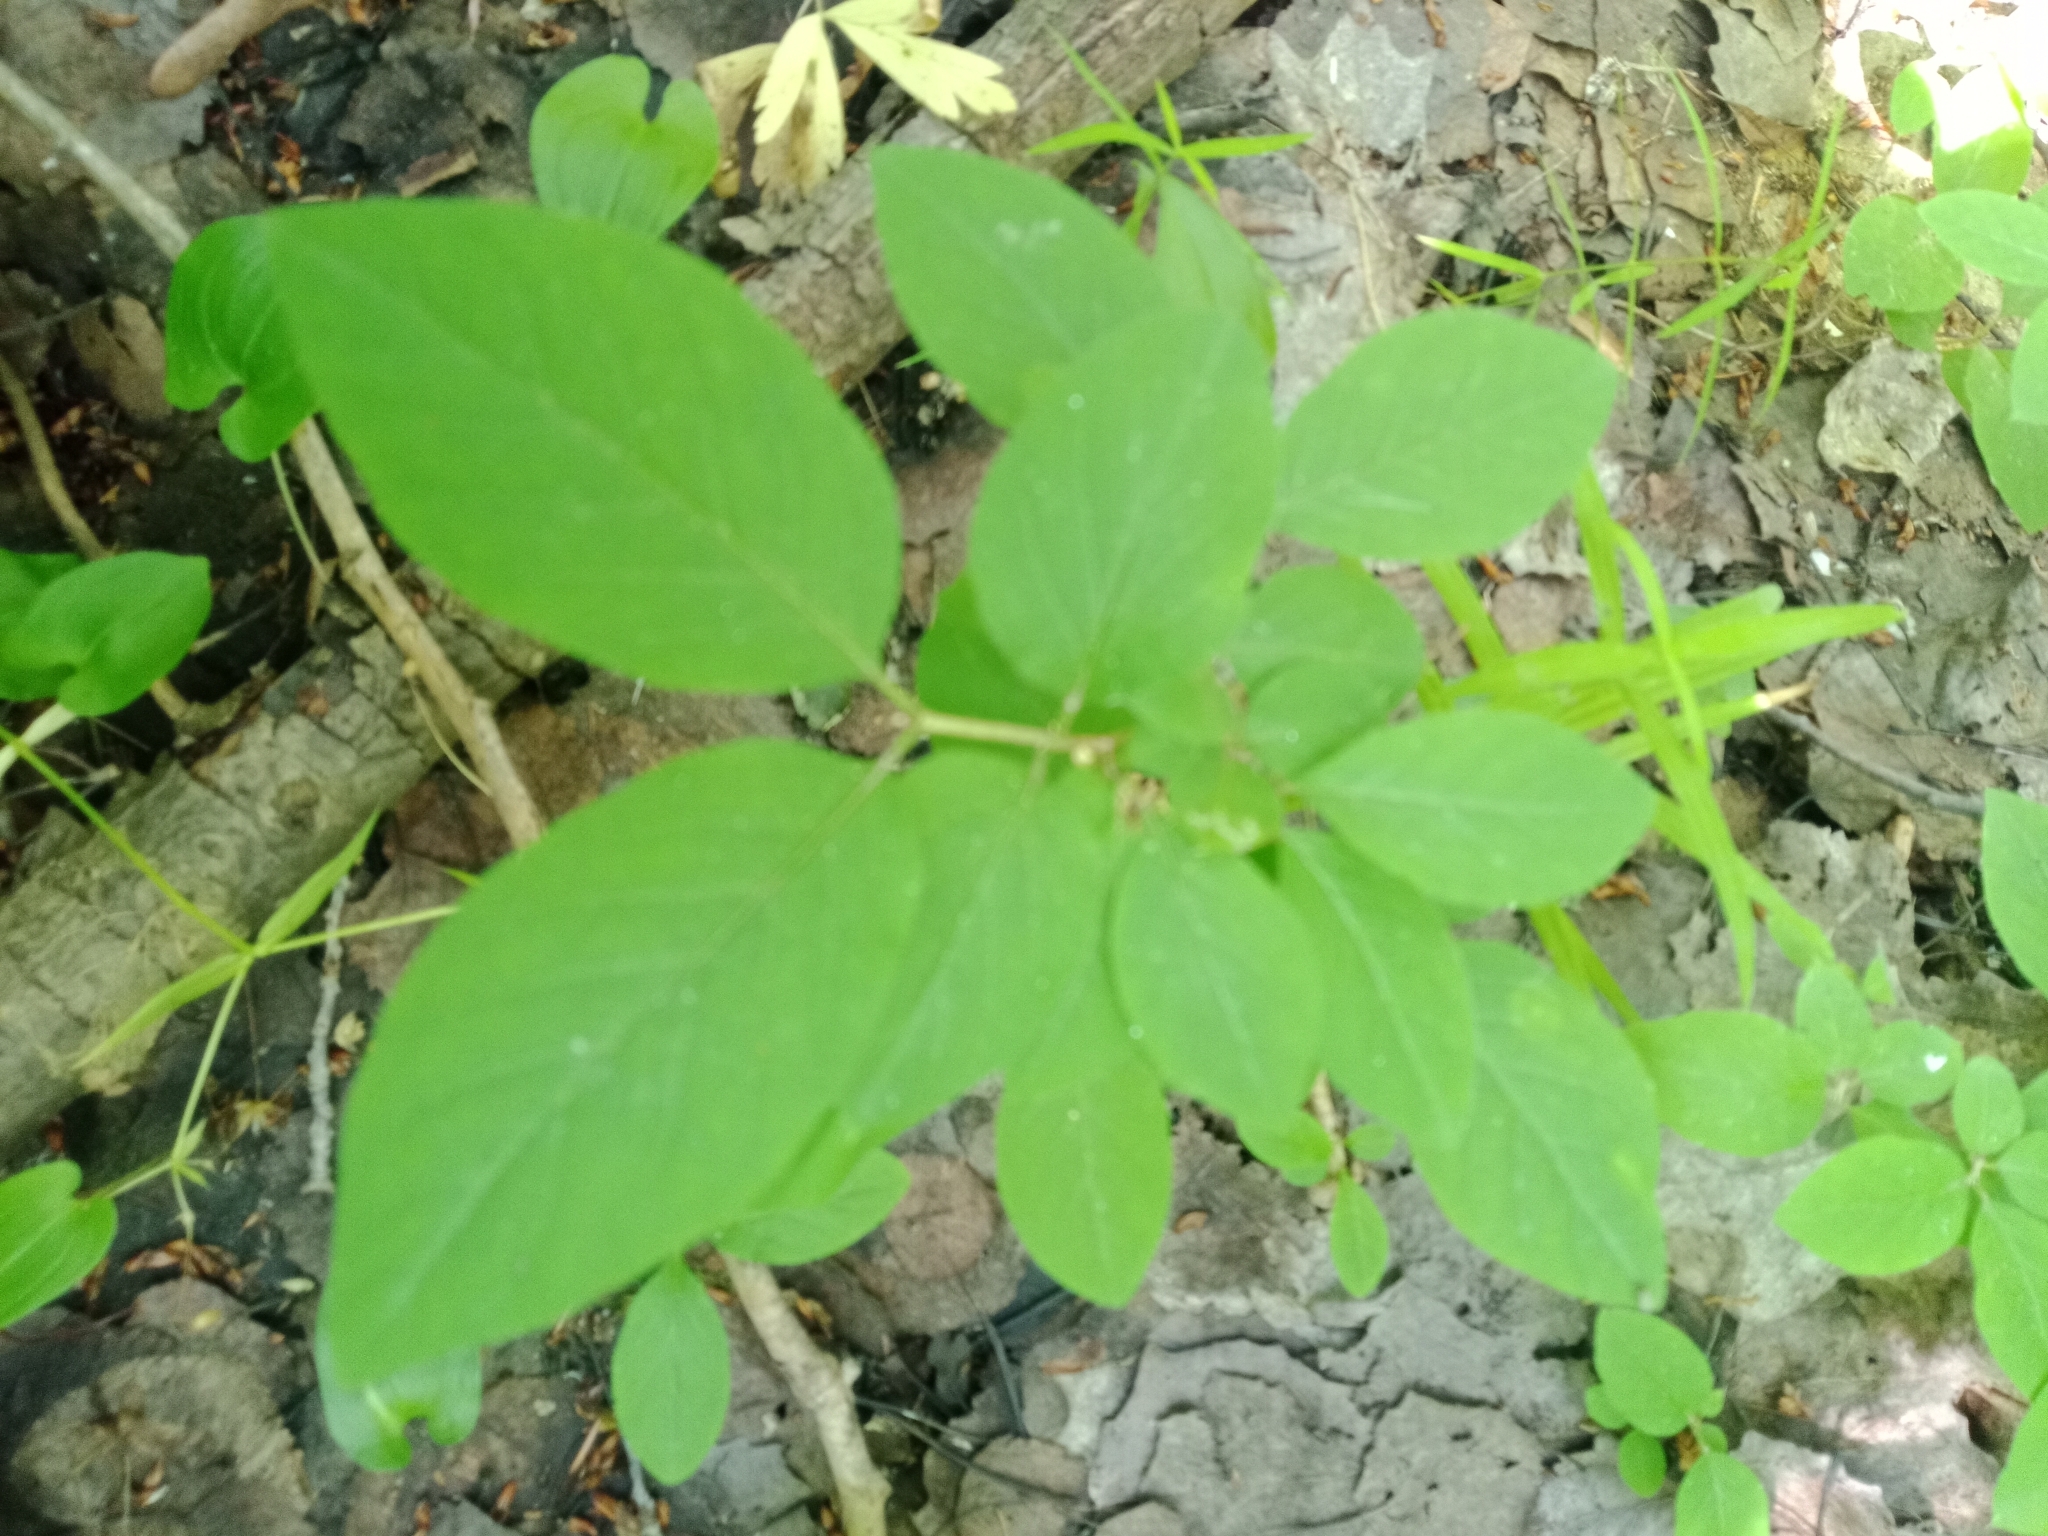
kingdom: Plantae
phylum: Tracheophyta
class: Magnoliopsida
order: Dipsacales
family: Caprifoliaceae
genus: Lonicera
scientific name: Lonicera xylosteum
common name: Fly honeysuckle
